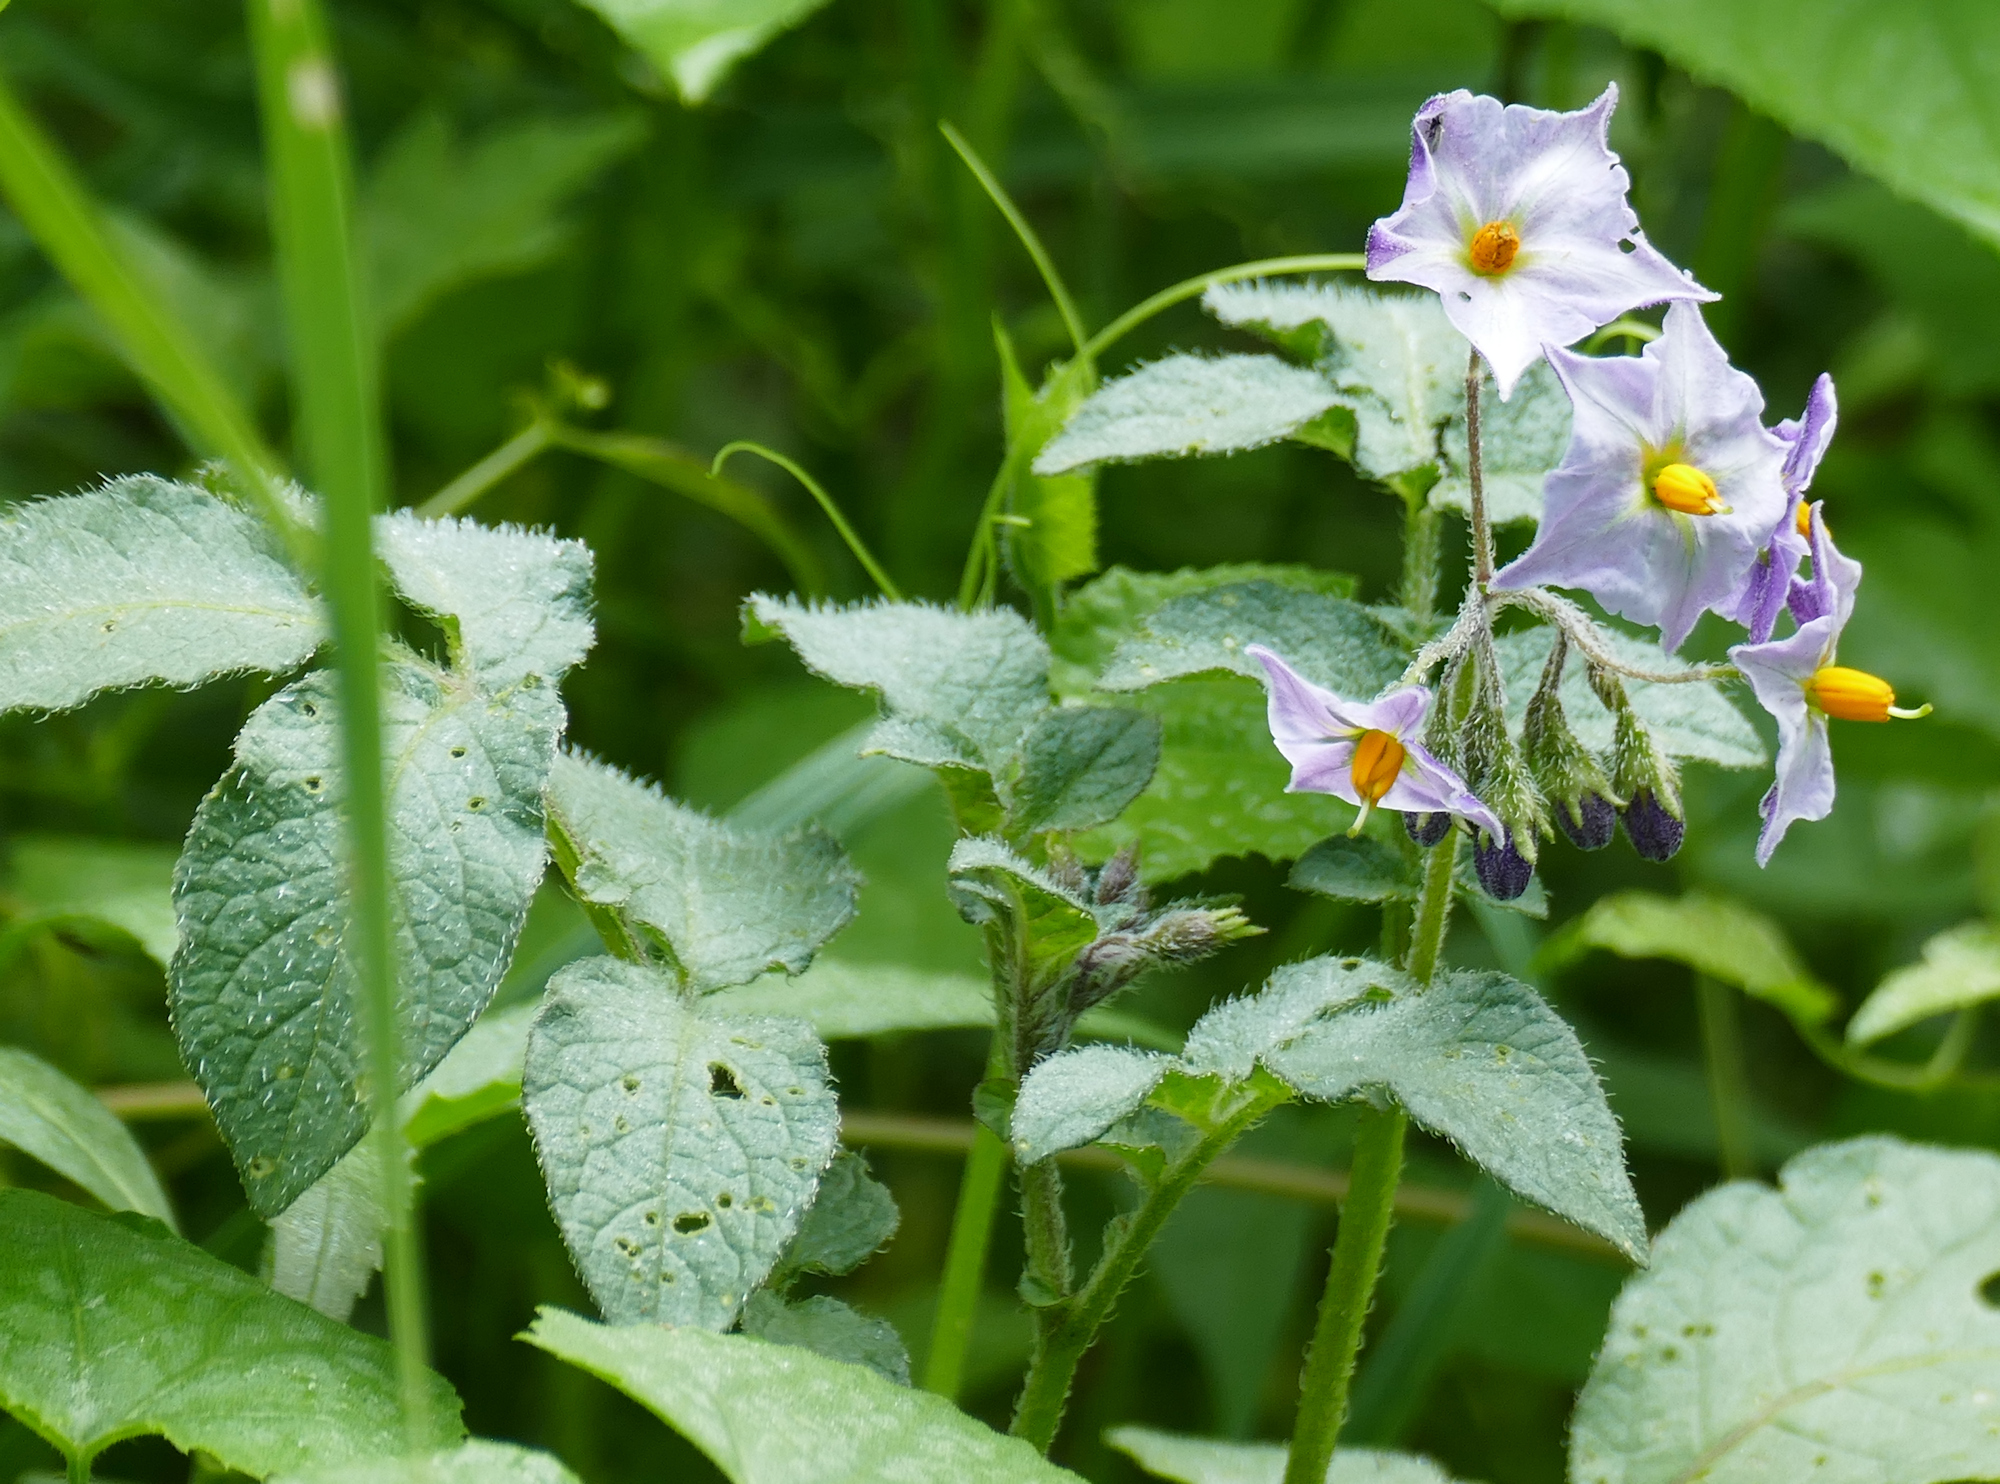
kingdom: Plantae
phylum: Tracheophyta
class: Magnoliopsida
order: Solanales
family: Solanaceae
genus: Solanum
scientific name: Solanum stoloniferum
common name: Fendler's nighshade
